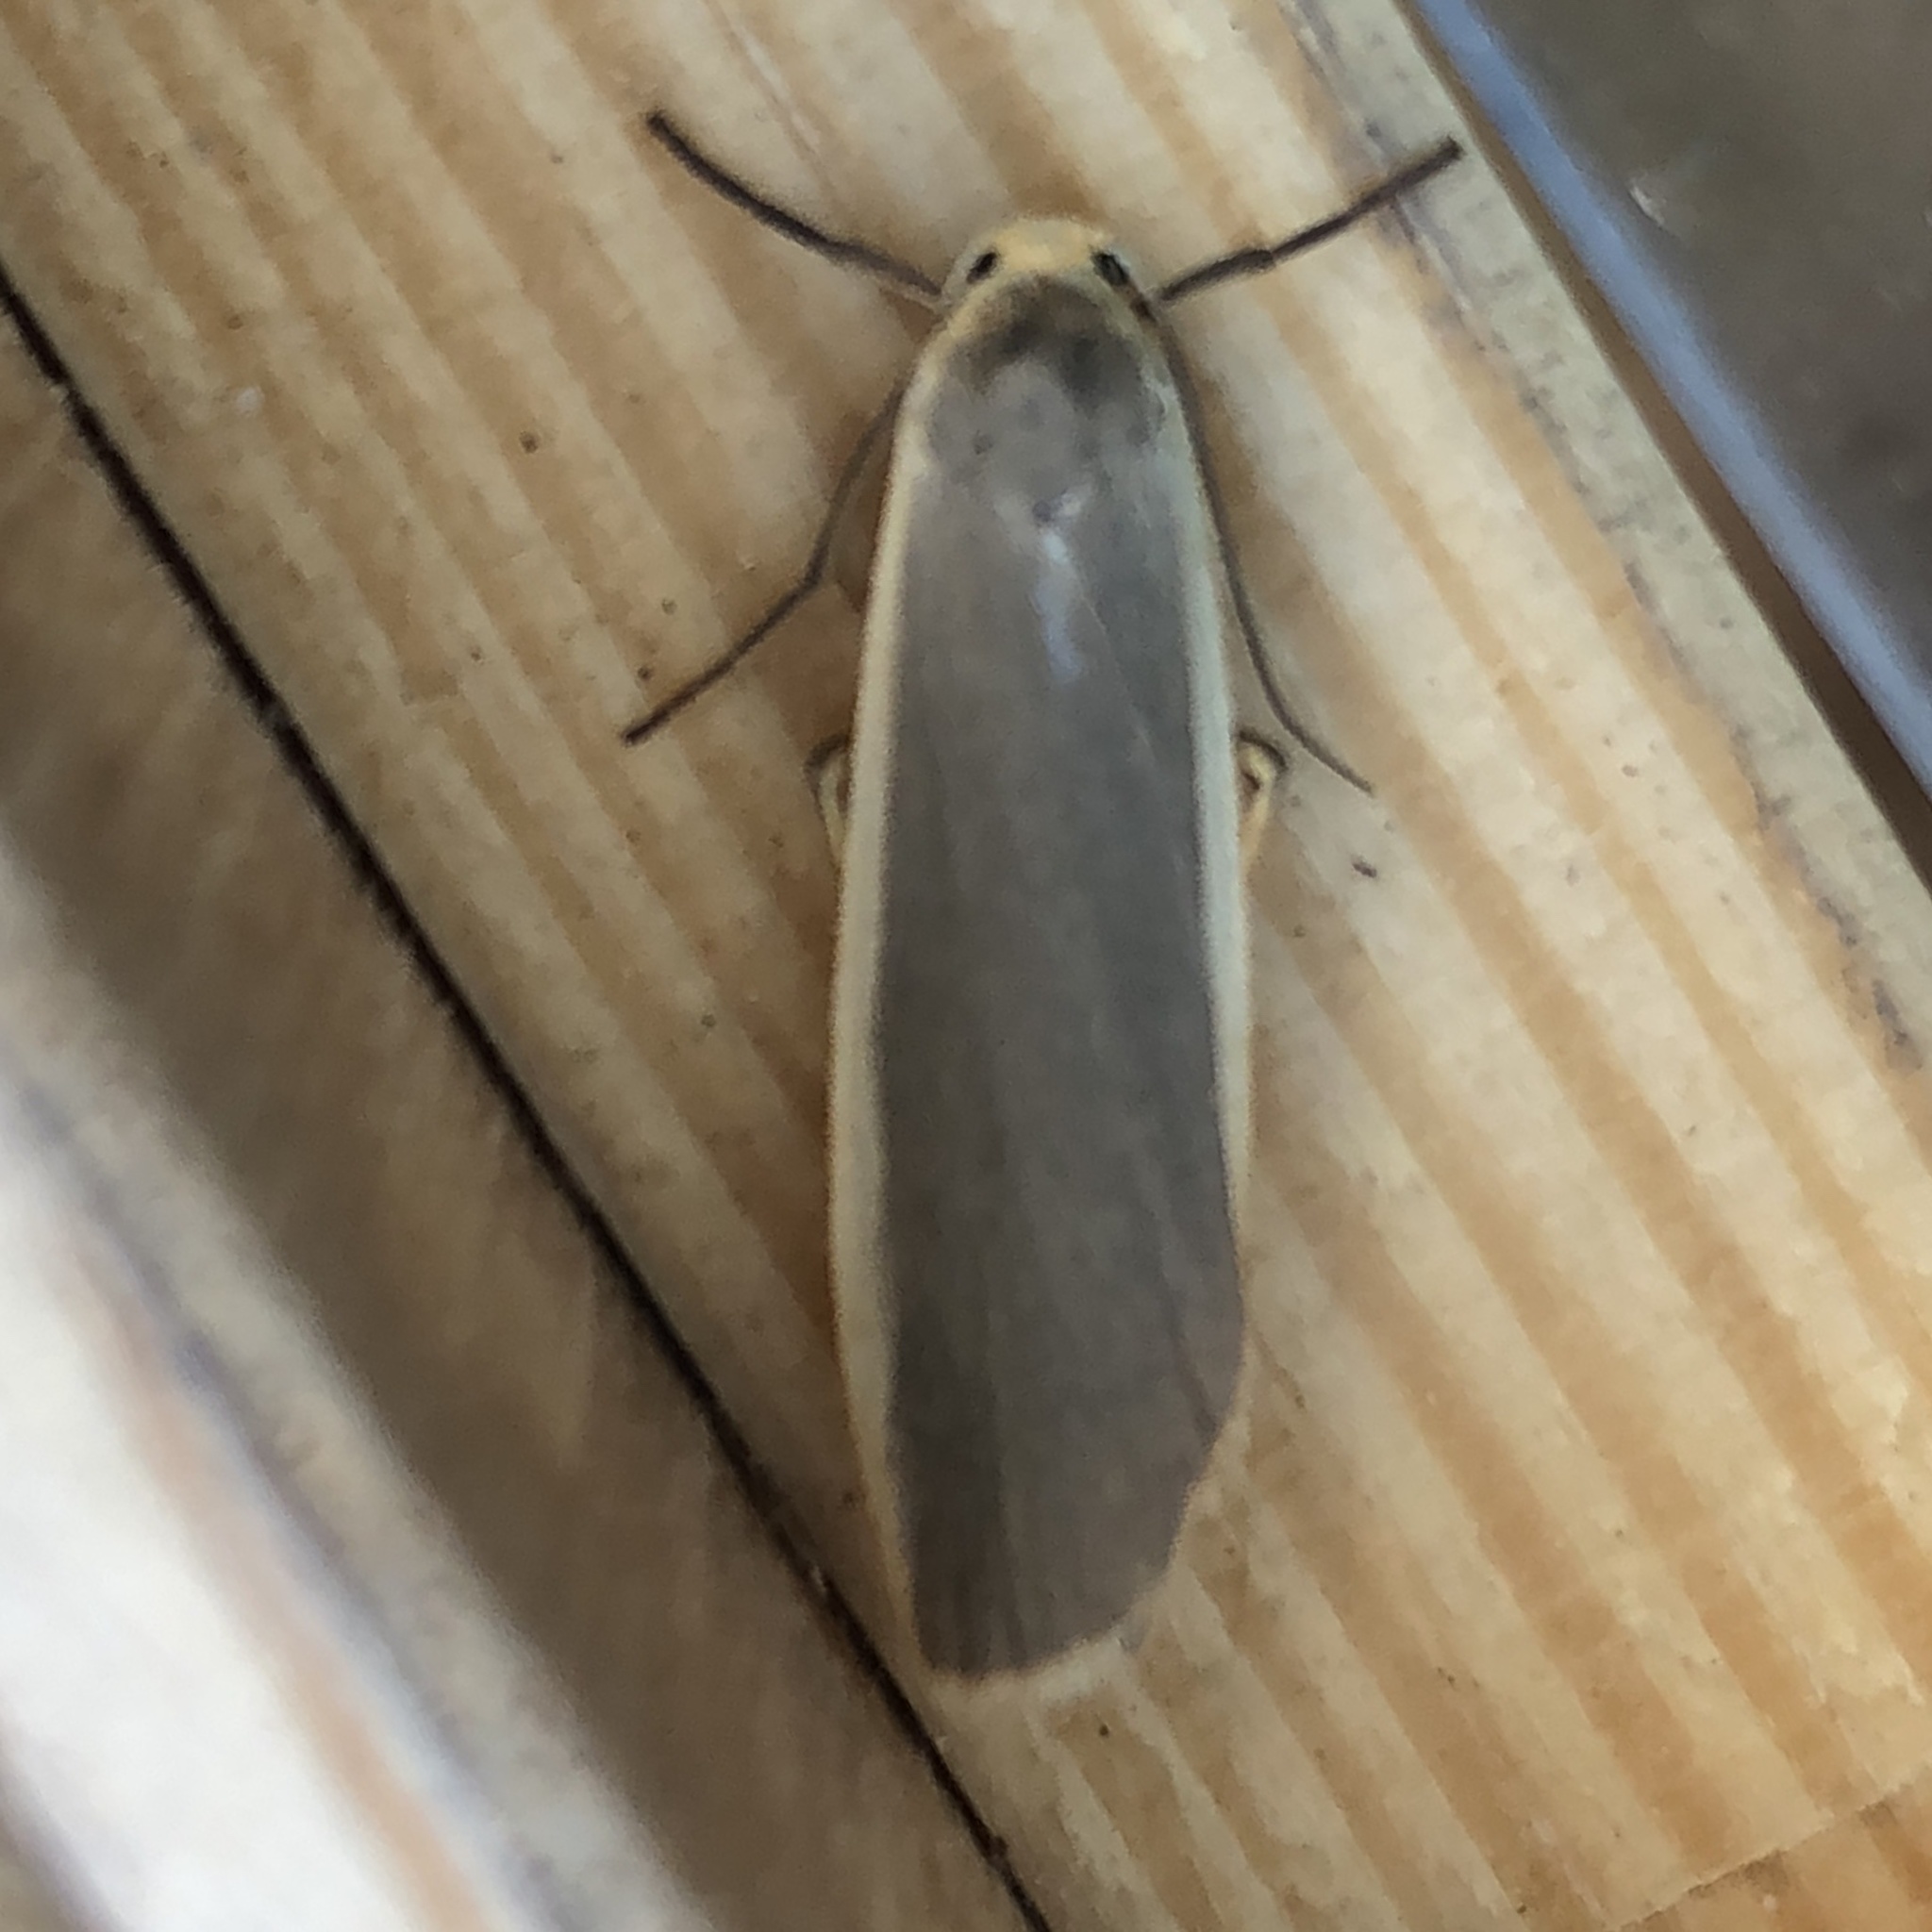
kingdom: Animalia
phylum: Arthropoda
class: Insecta
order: Lepidoptera
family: Erebidae
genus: Nyea
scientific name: Nyea lurideola
